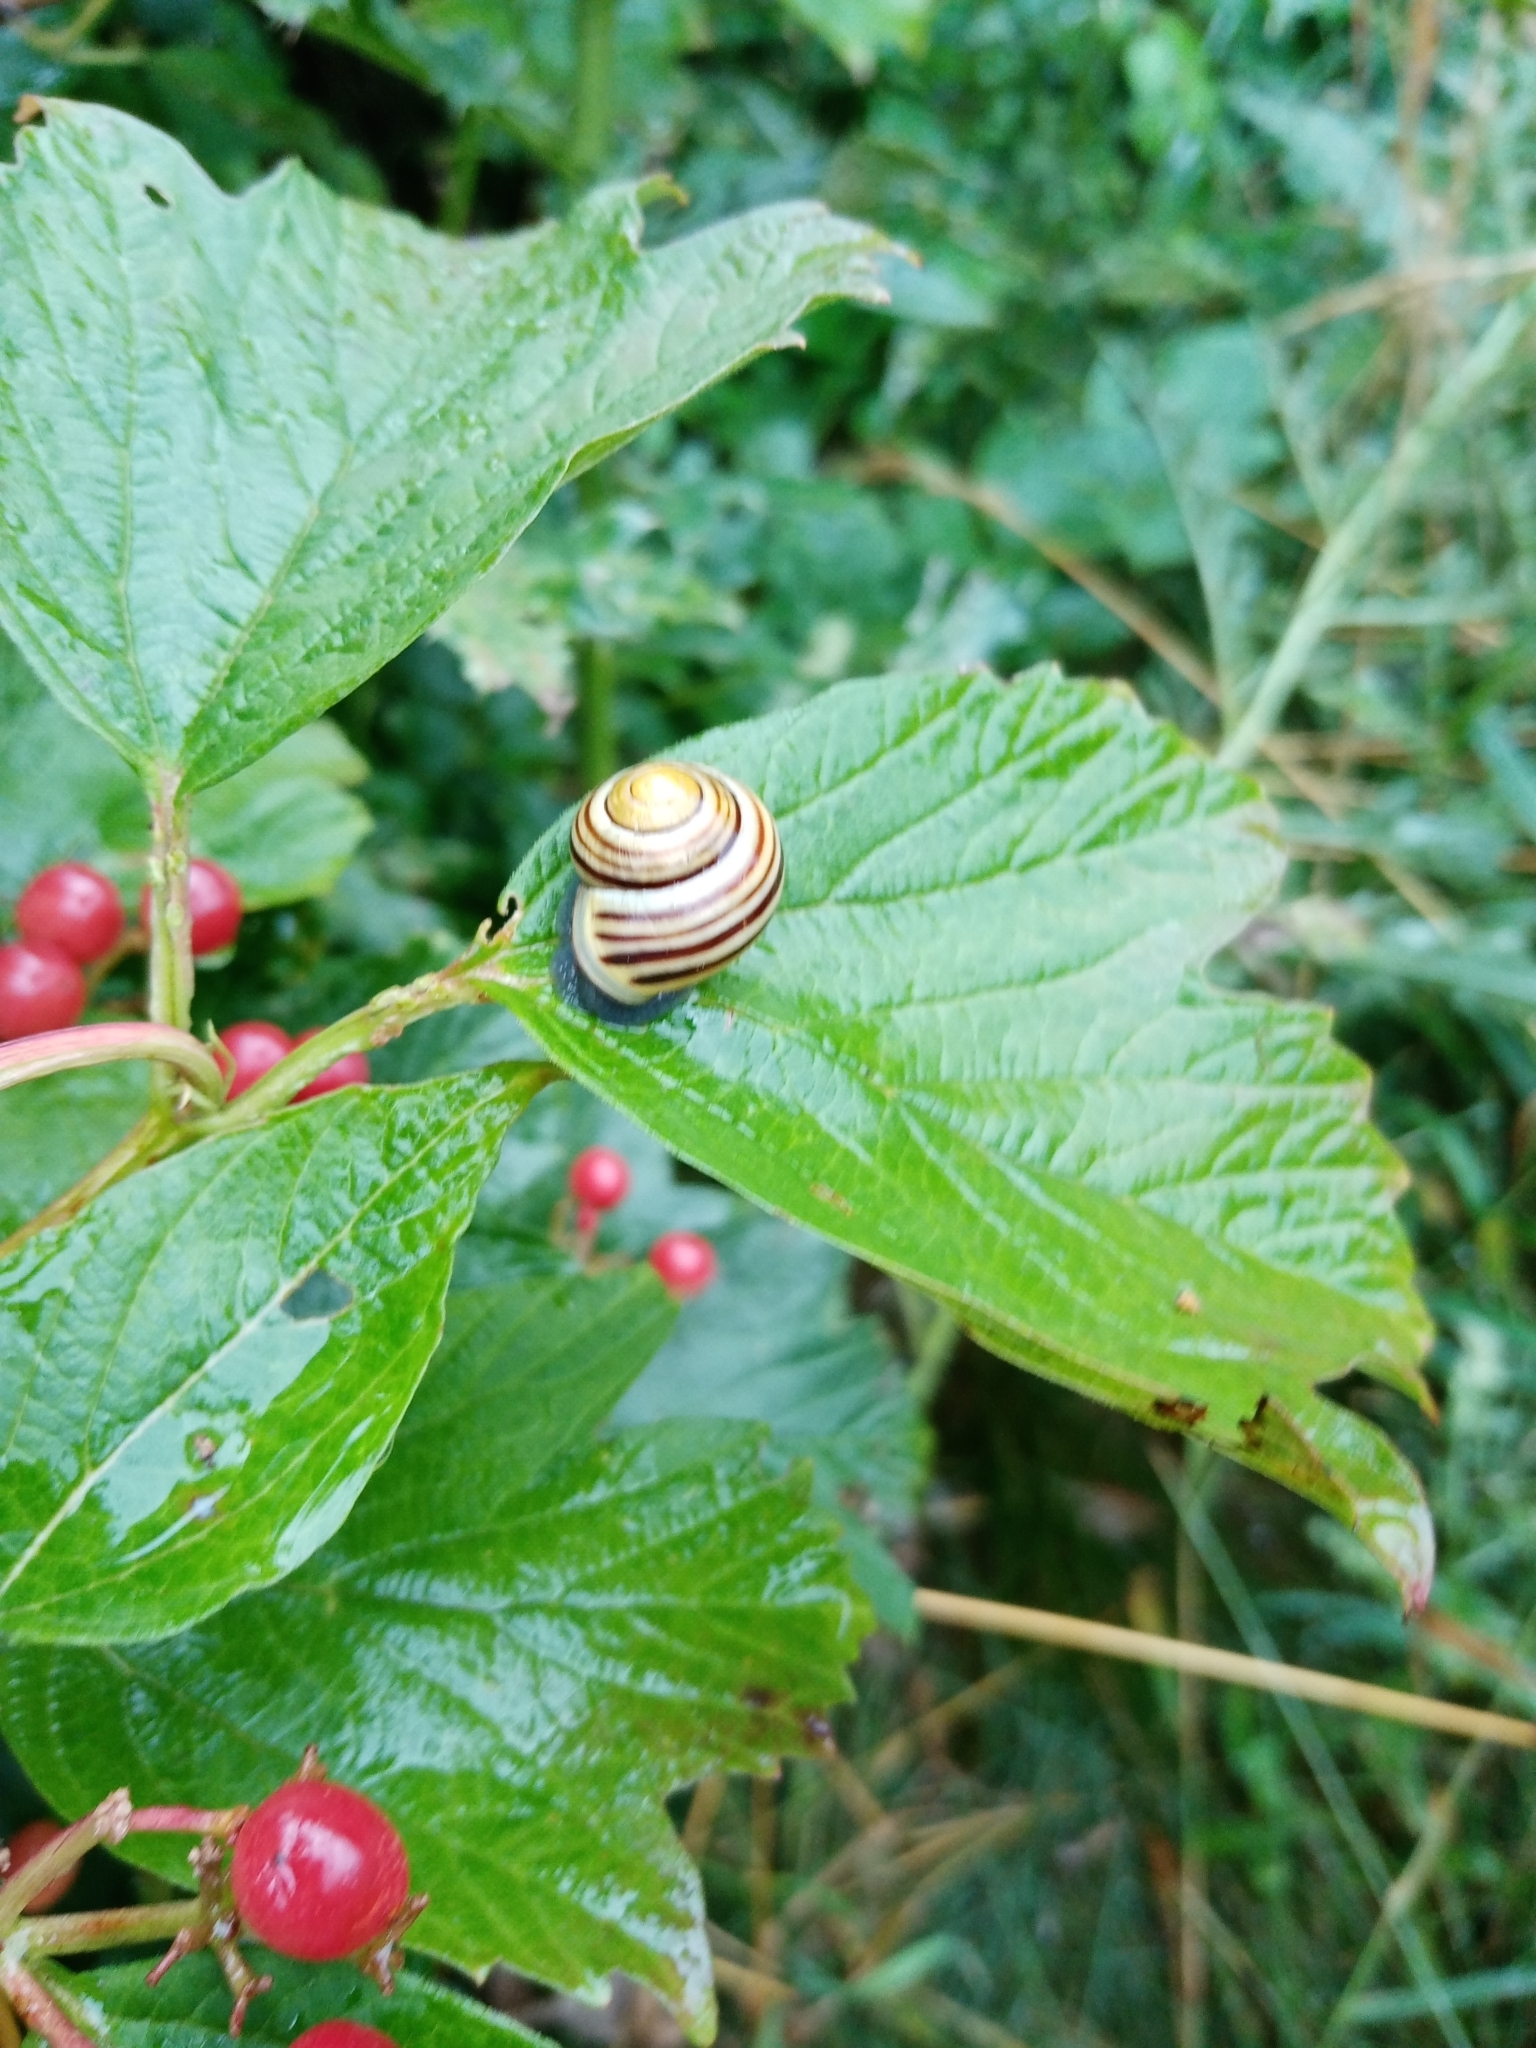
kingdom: Animalia
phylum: Mollusca
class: Gastropoda
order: Stylommatophora
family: Helicidae
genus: Cepaea
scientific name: Cepaea hortensis
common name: White-lip gardensnail
